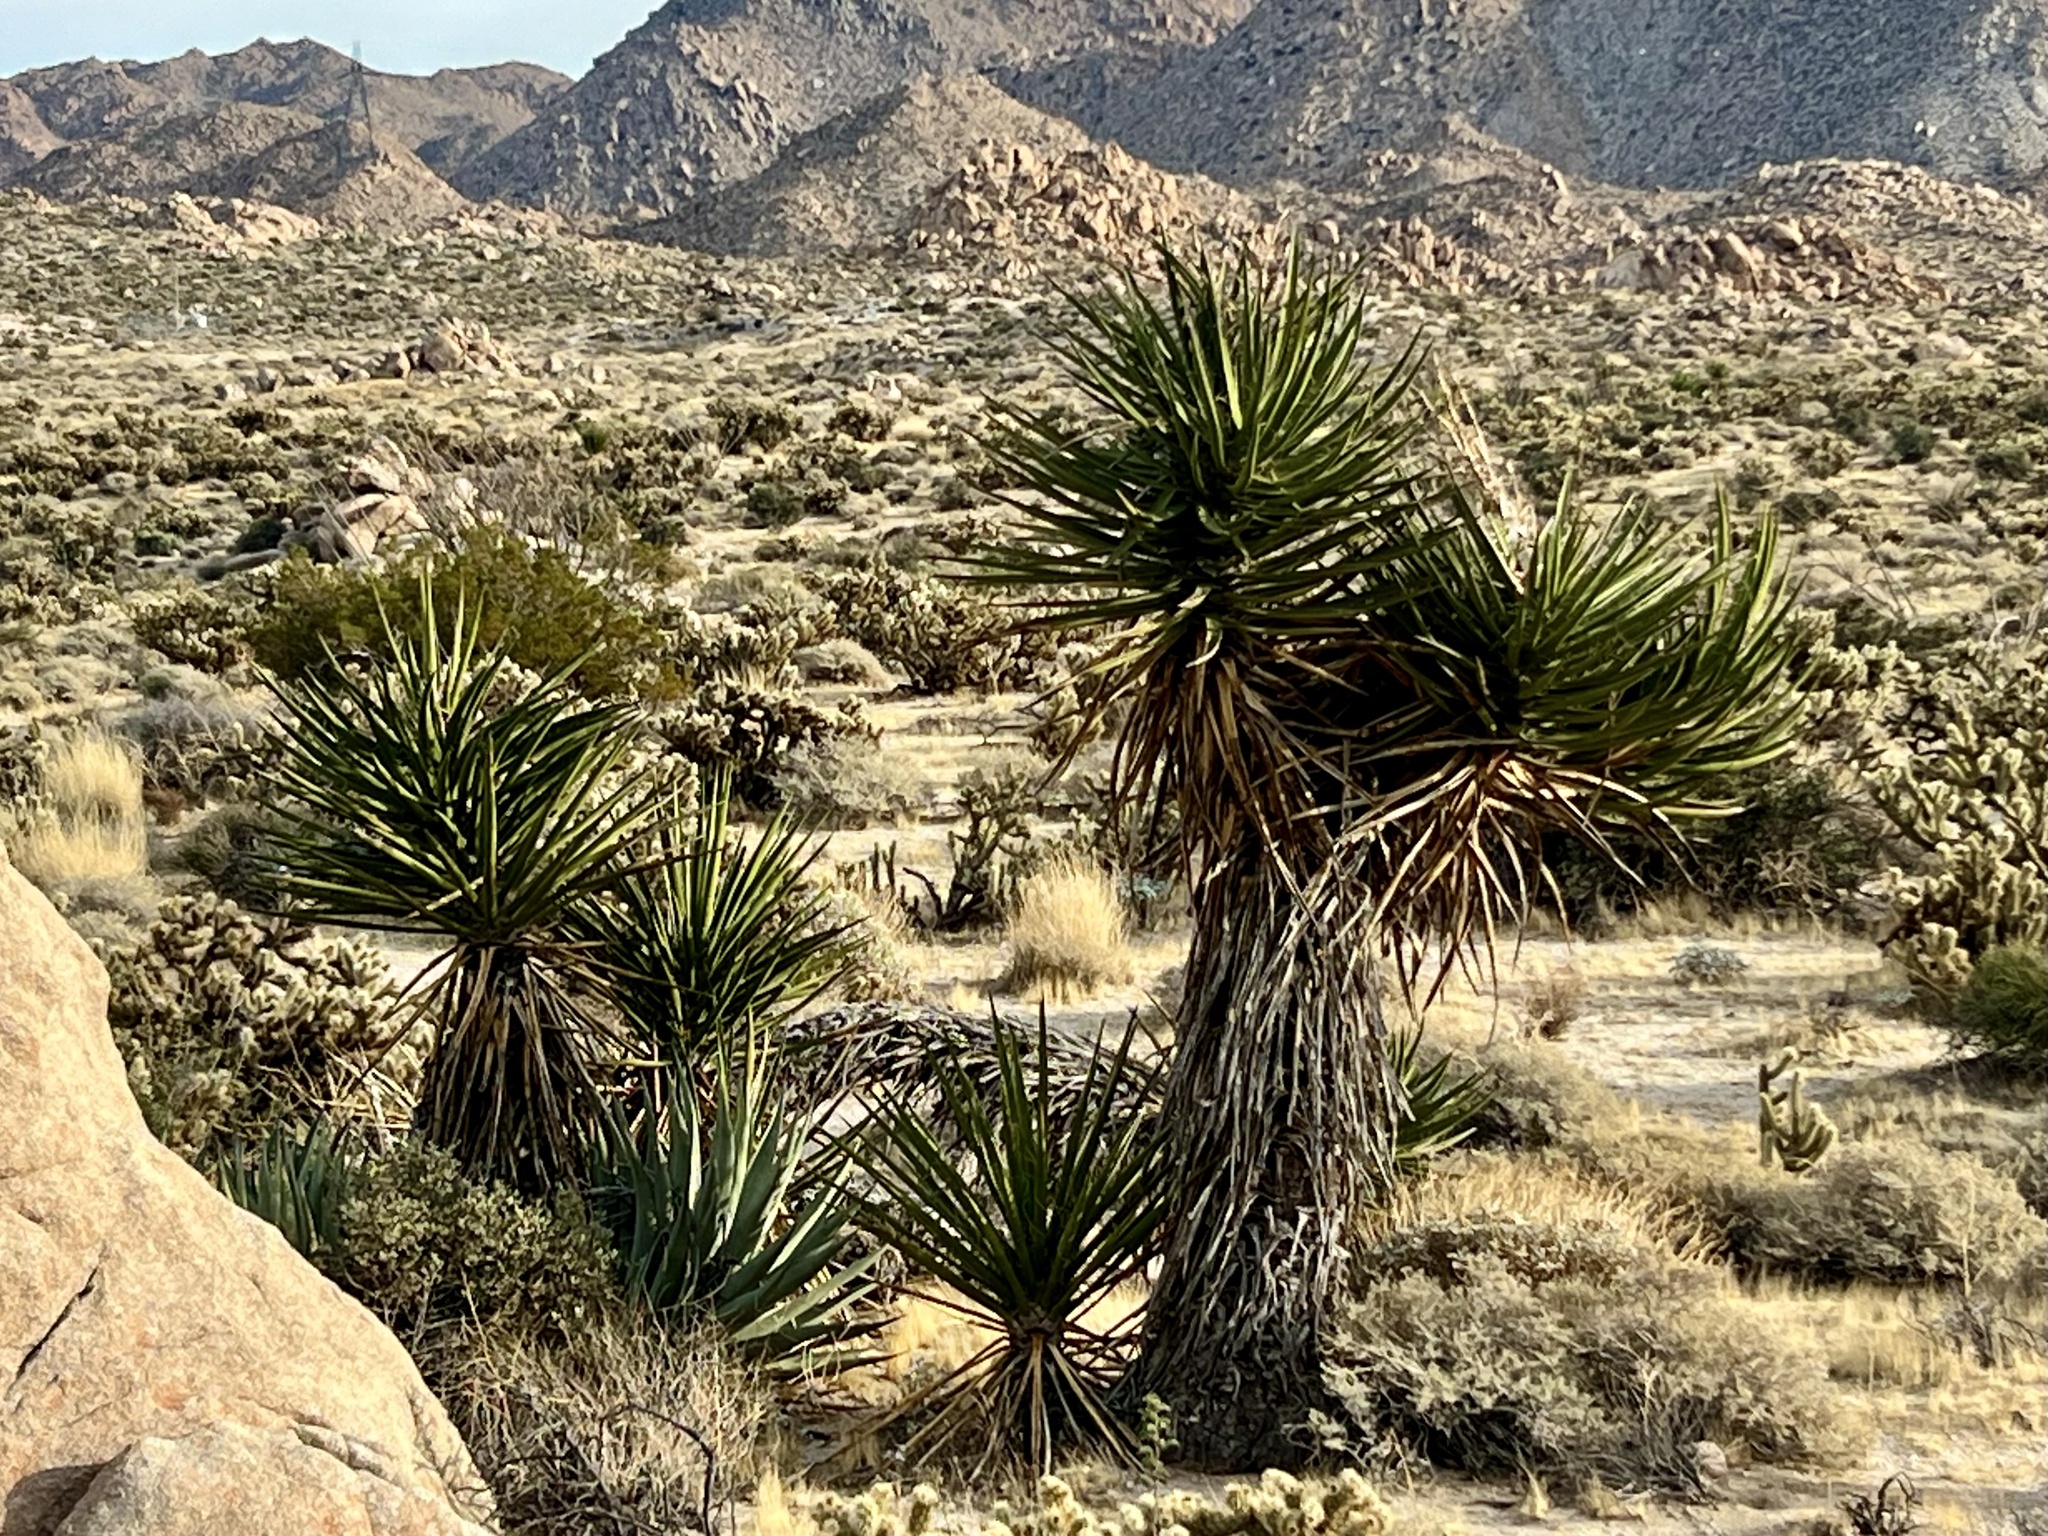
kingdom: Plantae
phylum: Tracheophyta
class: Liliopsida
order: Asparagales
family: Asparagaceae
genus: Yucca
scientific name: Yucca schidigera
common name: Mojave yucca
